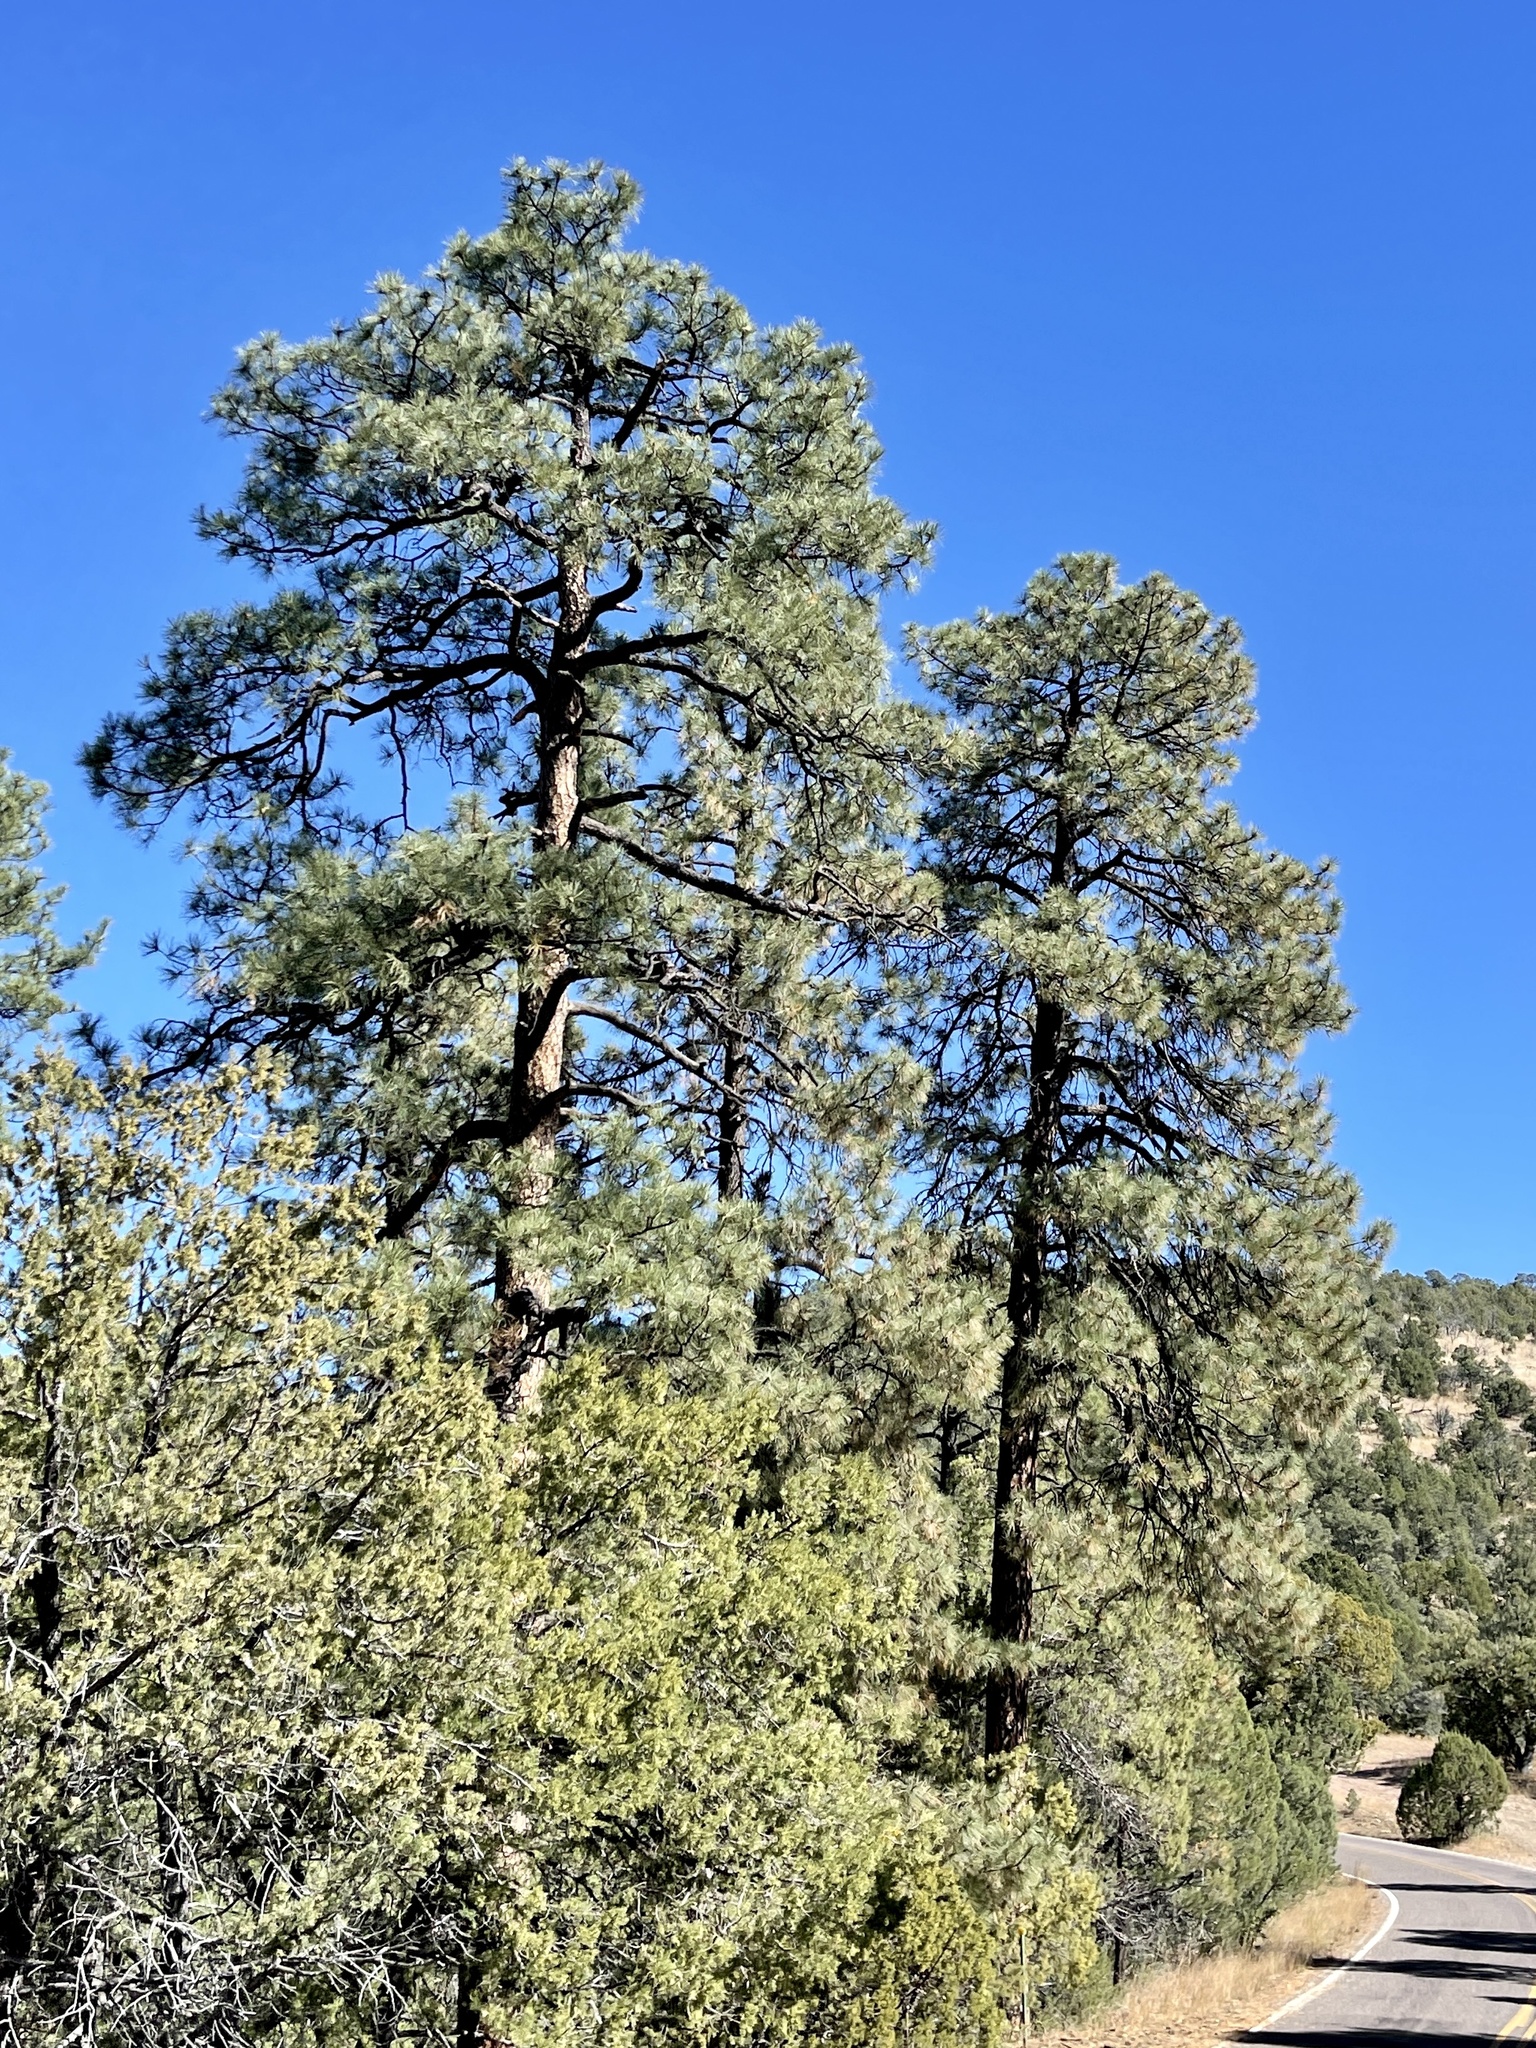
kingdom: Plantae
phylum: Tracheophyta
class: Pinopsida
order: Pinales
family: Pinaceae
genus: Pinus
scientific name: Pinus ponderosa
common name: Western yellow-pine
